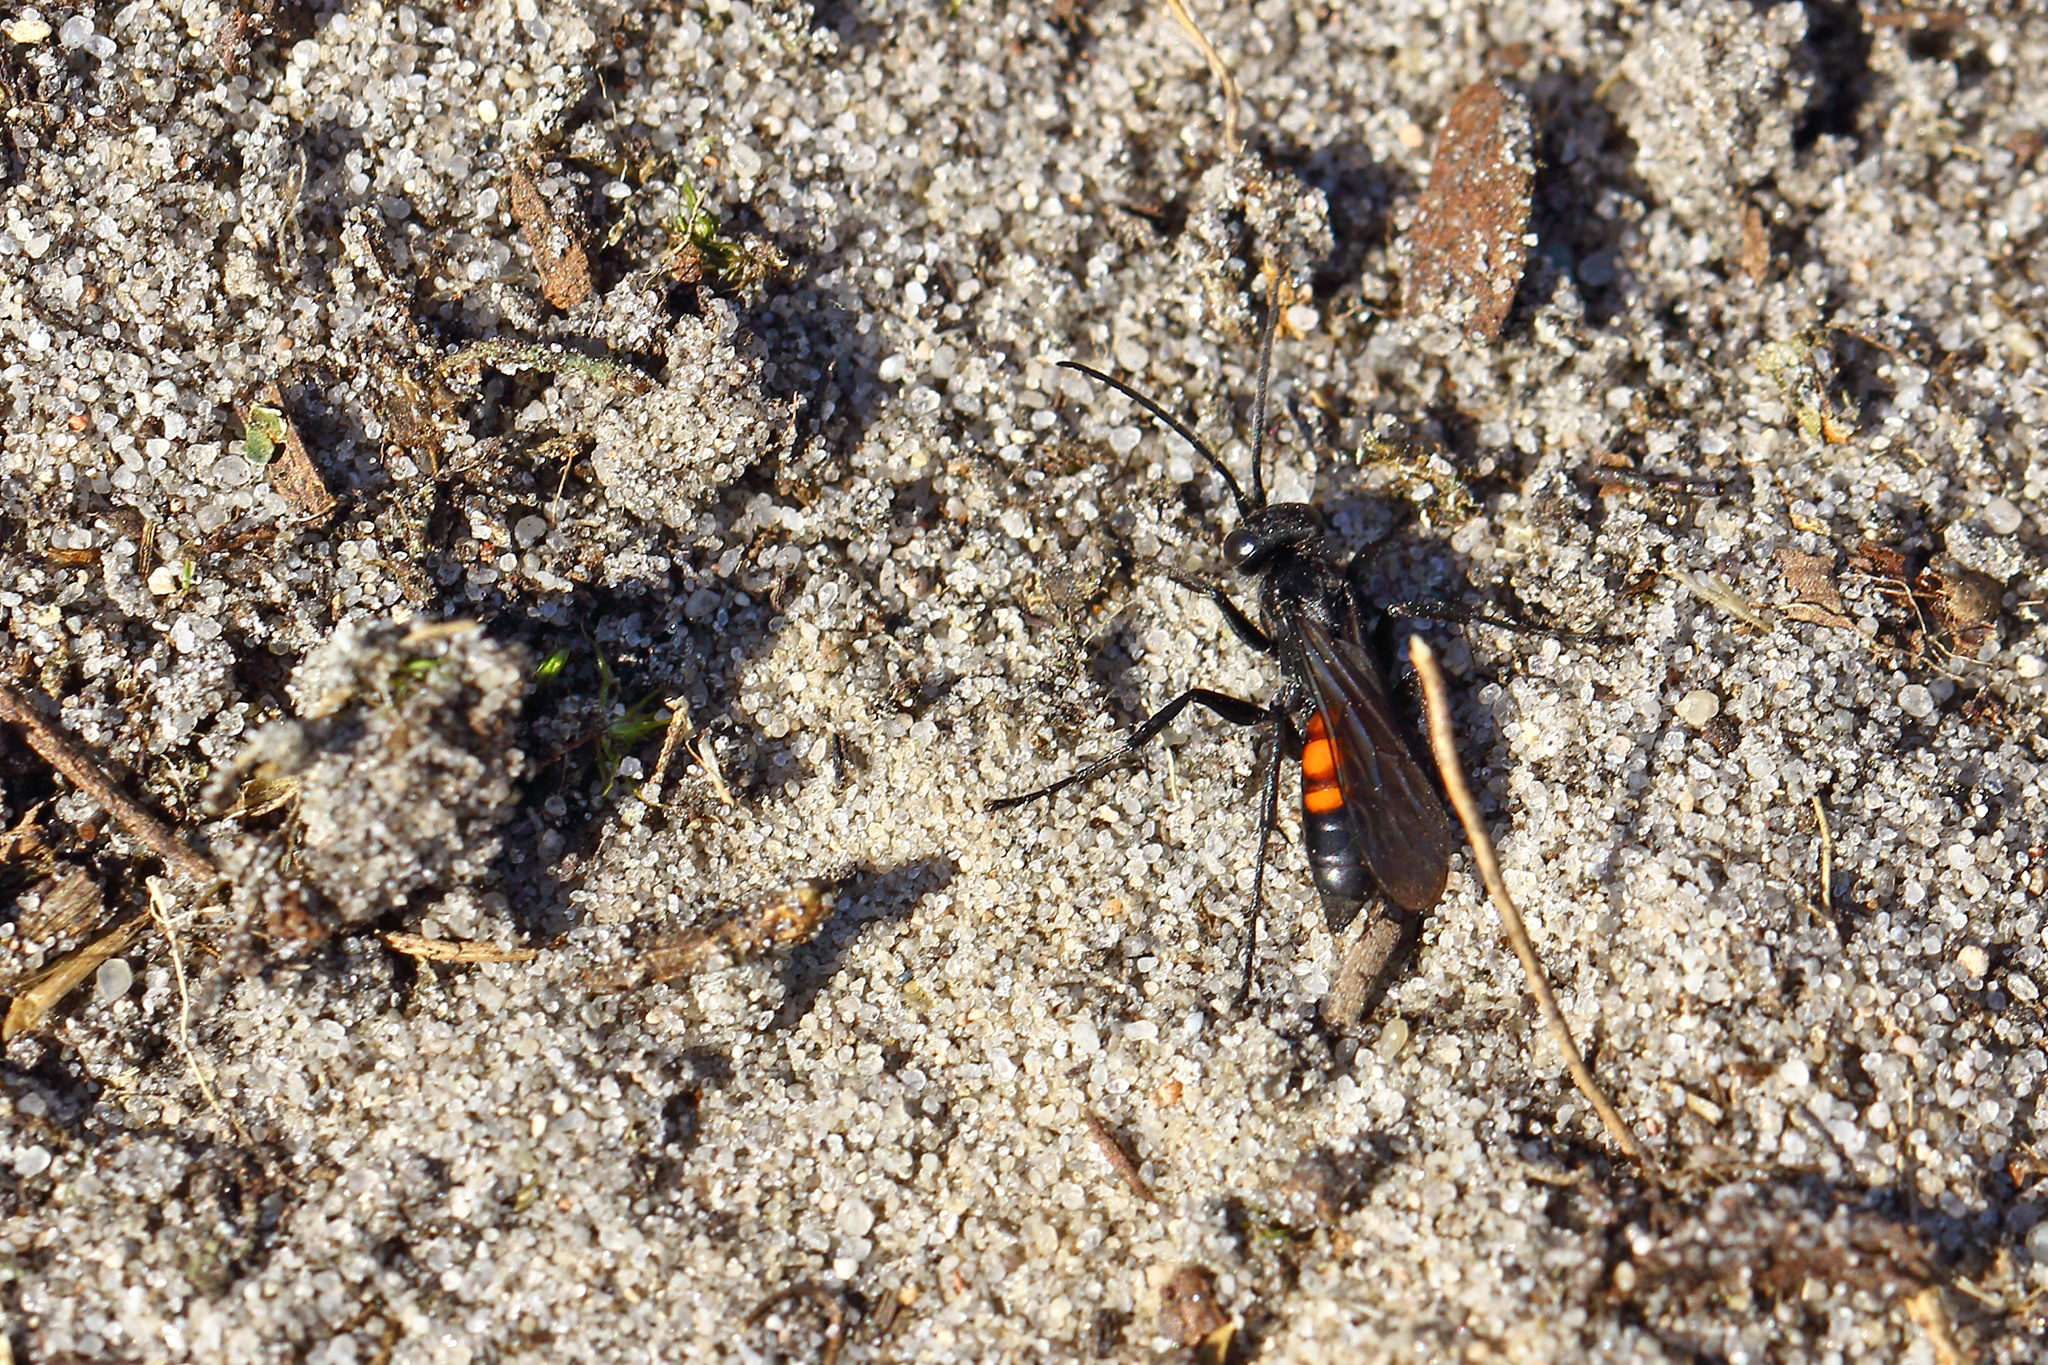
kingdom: Animalia
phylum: Arthropoda
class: Insecta
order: Hymenoptera
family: Pompilidae
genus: Anoplius
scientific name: Anoplius viaticus
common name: Black banded spider wasp
